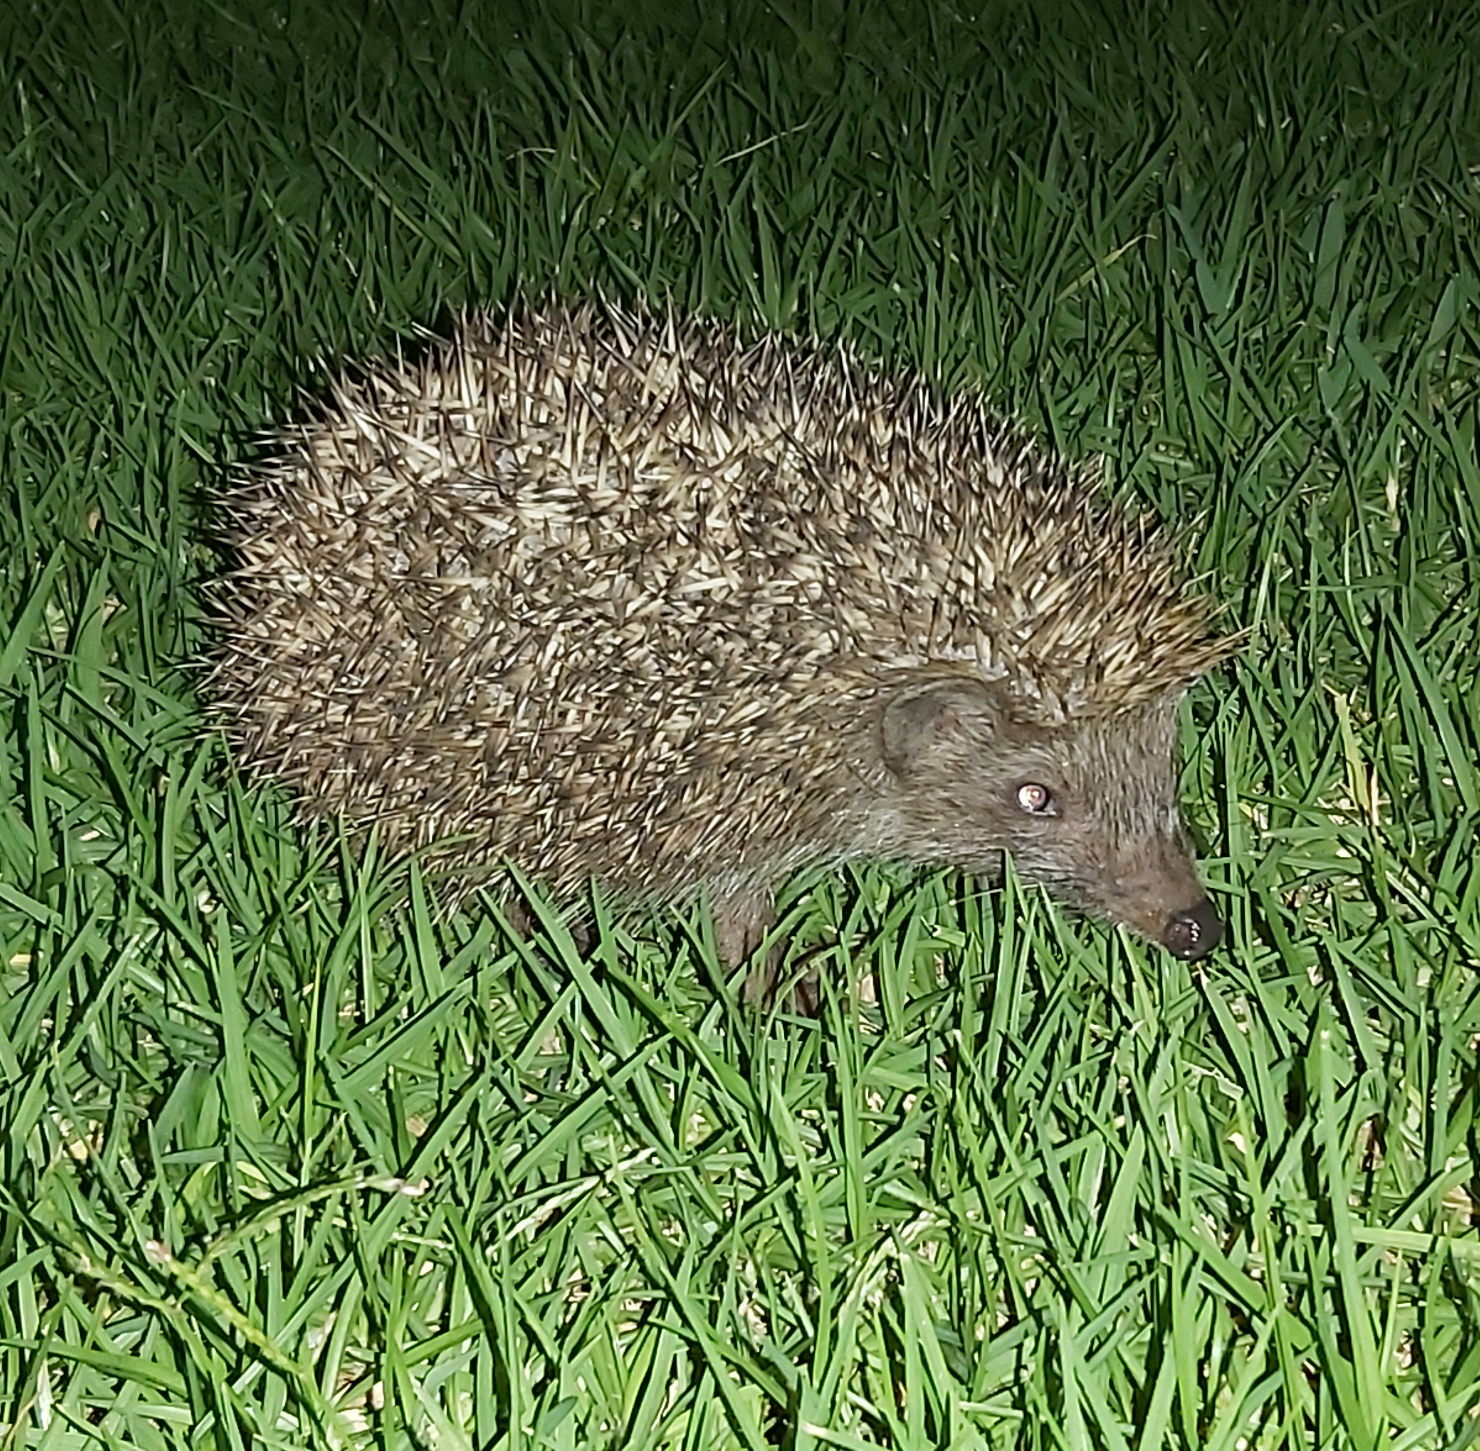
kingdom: Animalia
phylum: Chordata
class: Mammalia
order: Erinaceomorpha
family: Erinaceidae
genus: Erinaceus
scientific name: Erinaceus concolor
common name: Southern white-breasted hedgehog
